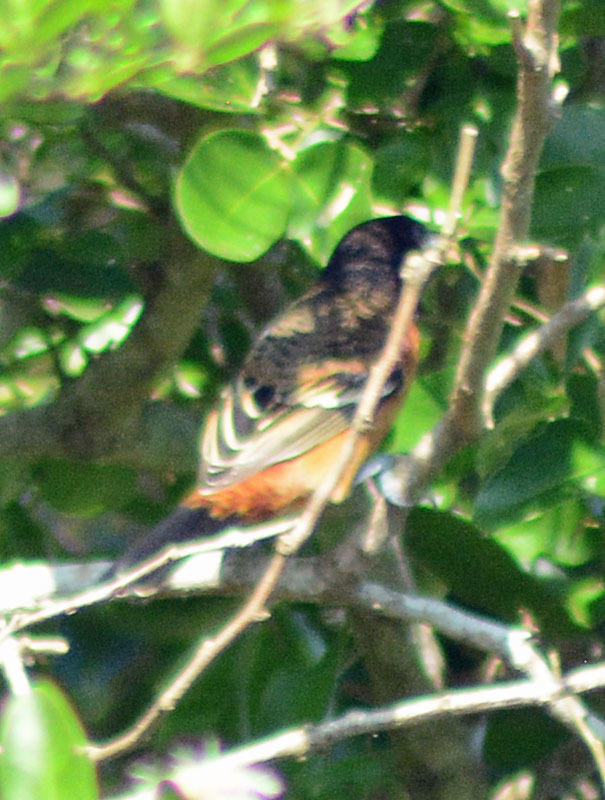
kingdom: Animalia
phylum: Chordata
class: Aves
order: Passeriformes
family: Icteridae
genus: Icterus
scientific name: Icterus spurius
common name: Orchard oriole
